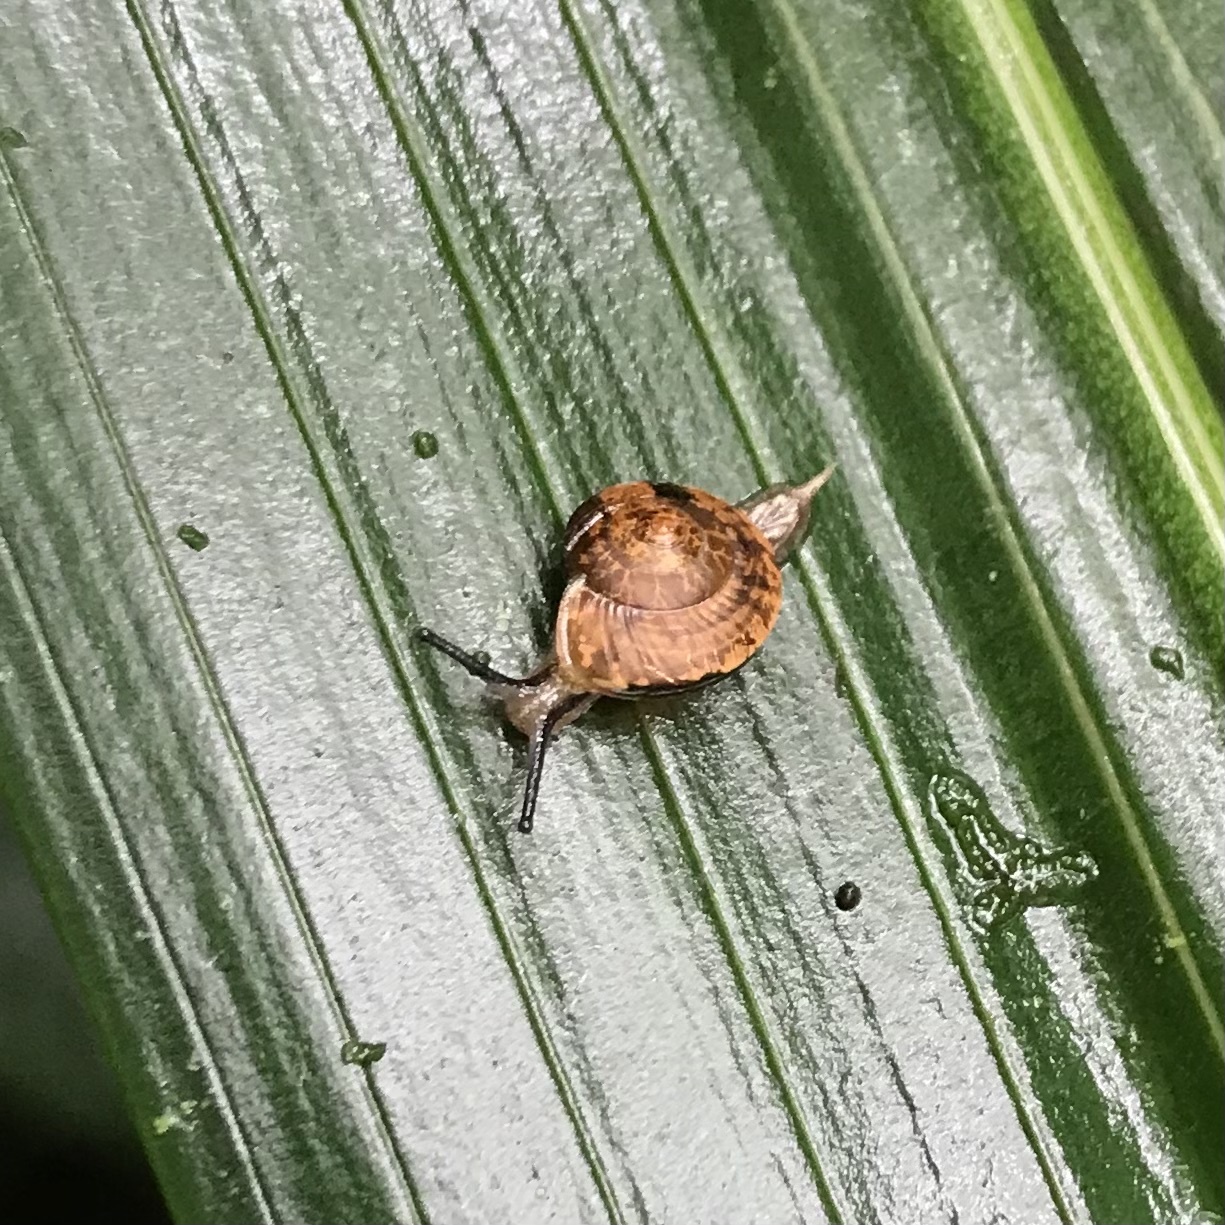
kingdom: Animalia
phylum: Mollusca
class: Gastropoda
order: Stylommatophora
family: Helicarionidae
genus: Nitor
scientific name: Nitor subrugatus
